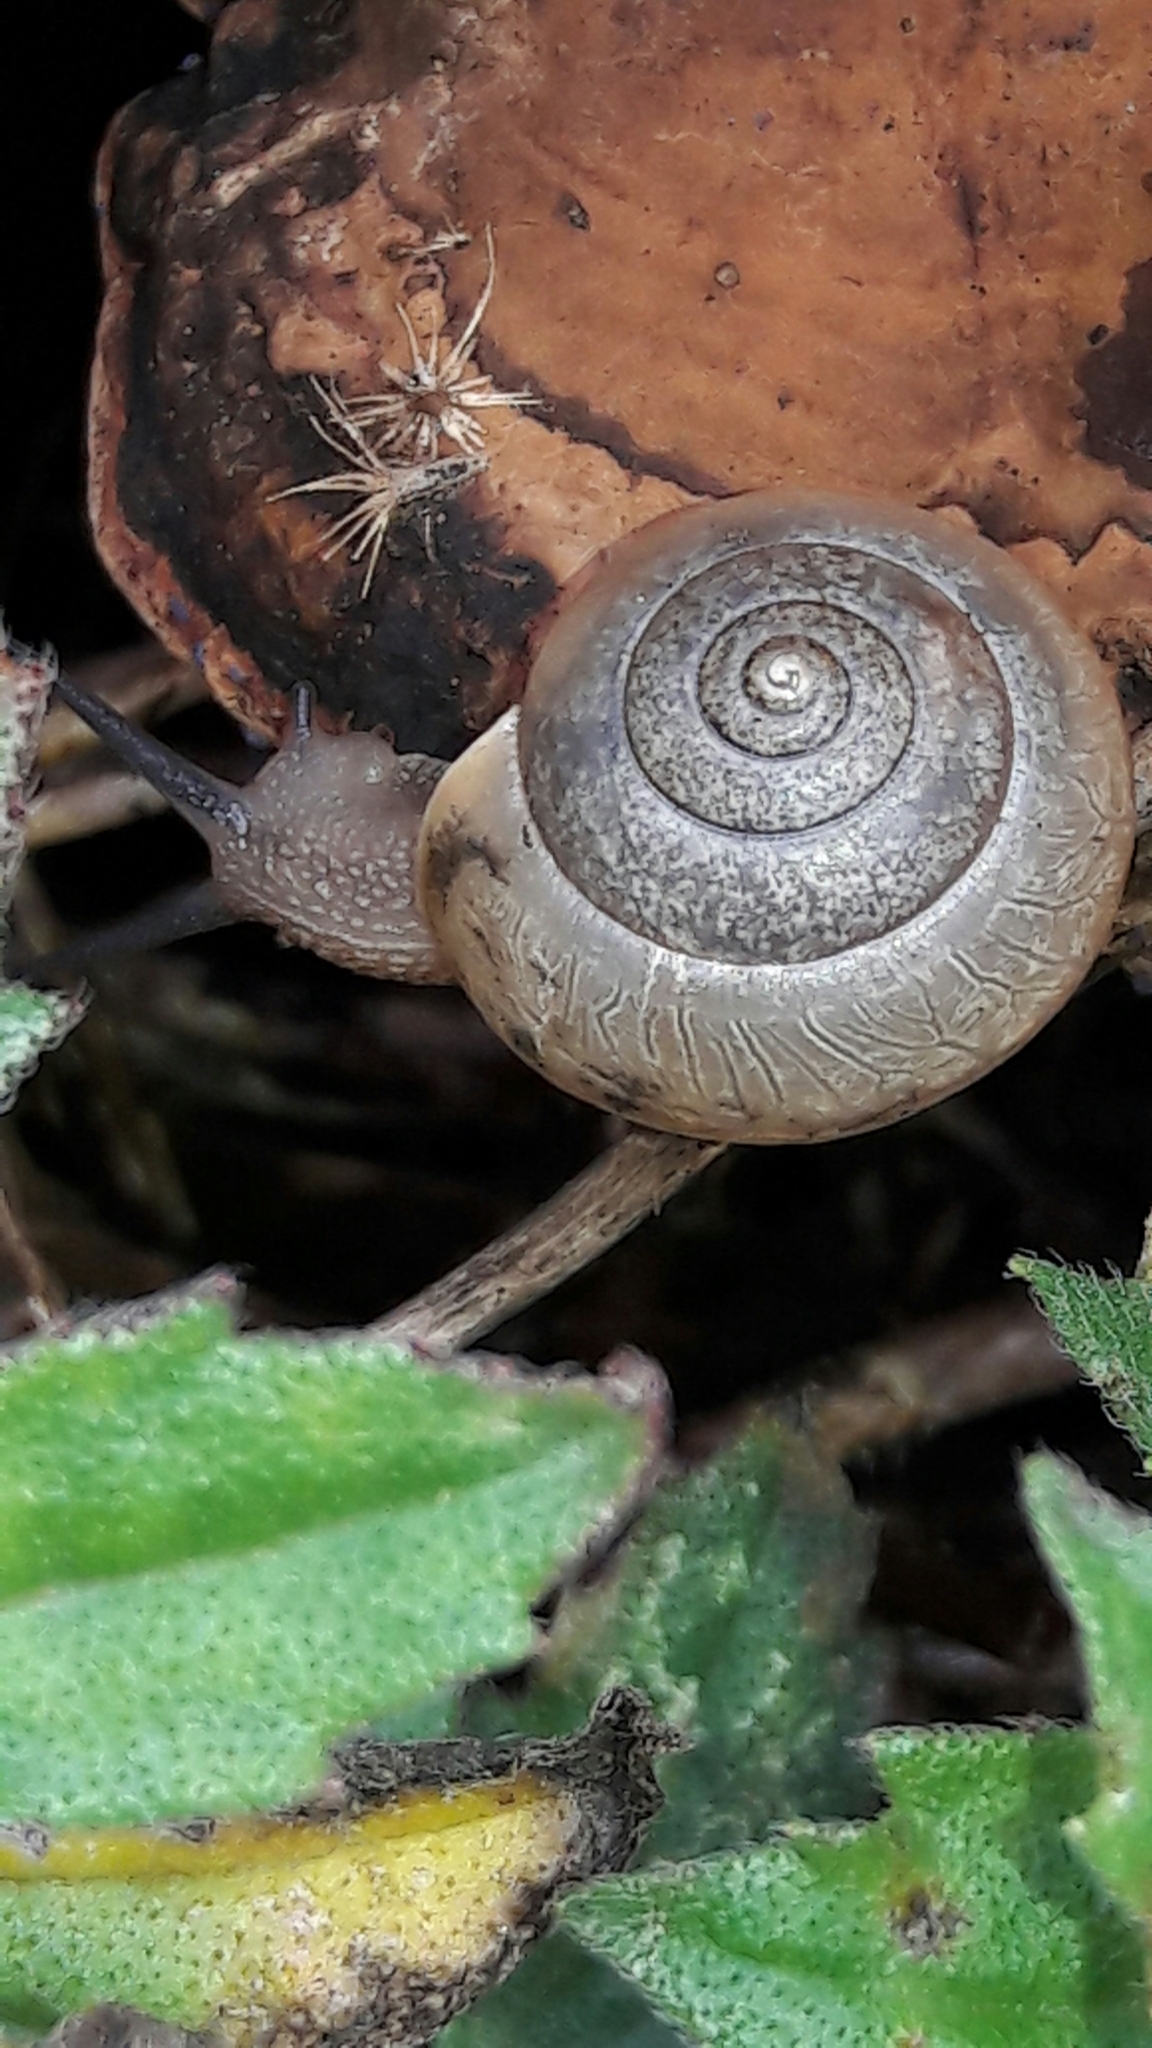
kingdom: Animalia
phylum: Mollusca
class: Gastropoda
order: Stylommatophora
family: Camaenidae
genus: Bradybaena
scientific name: Bradybaena similaris
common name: Asian trampsnail
